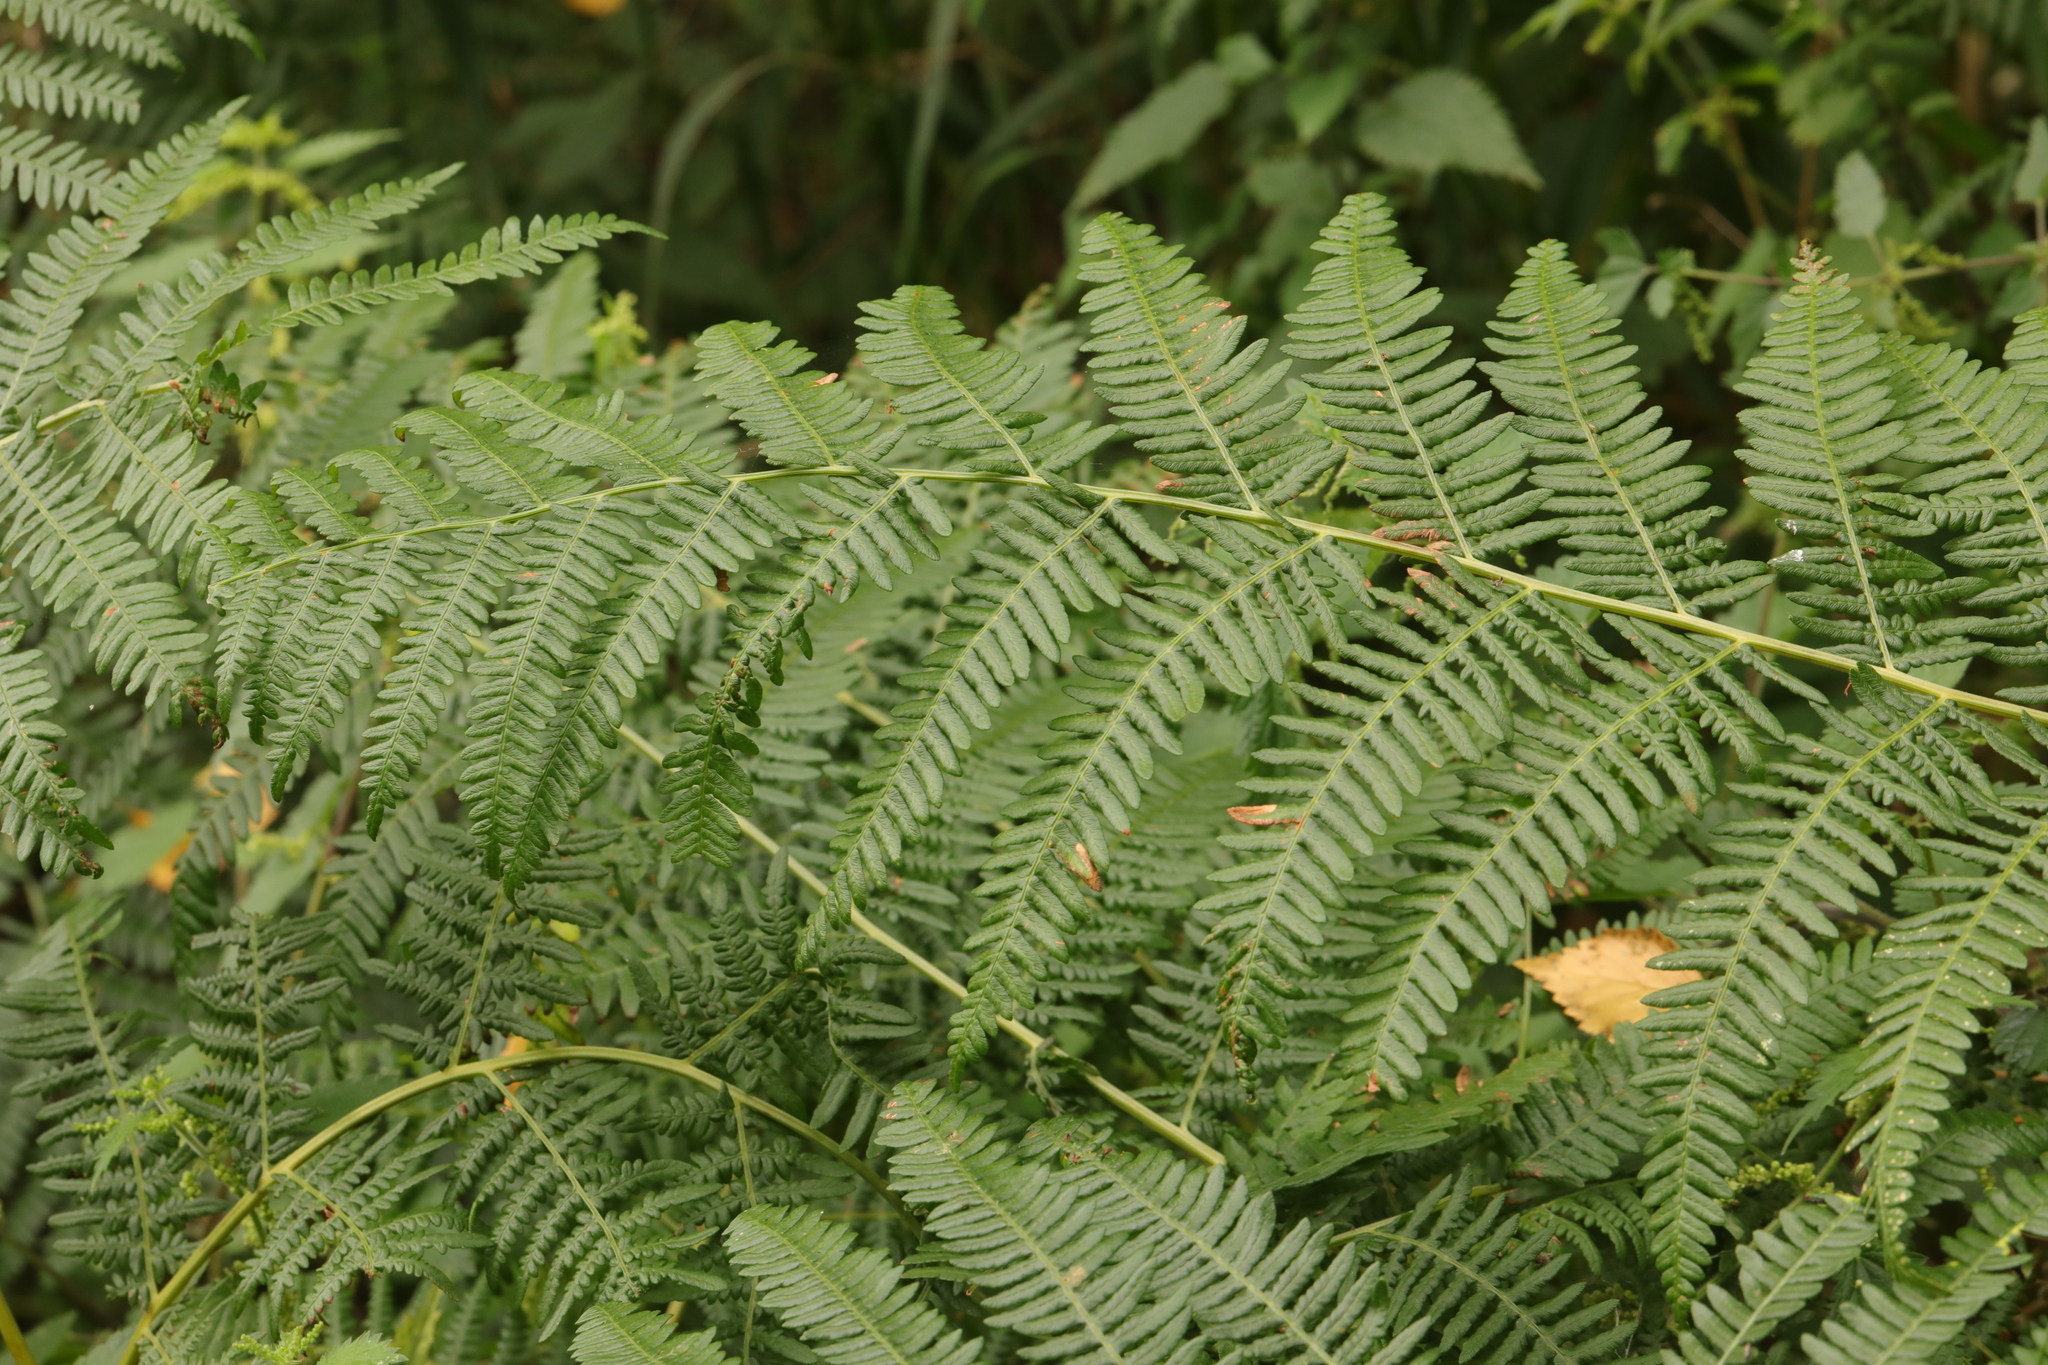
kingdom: Plantae
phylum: Tracheophyta
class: Polypodiopsida
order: Polypodiales
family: Dennstaedtiaceae
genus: Pteridium
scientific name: Pteridium aquilinum
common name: Bracken
